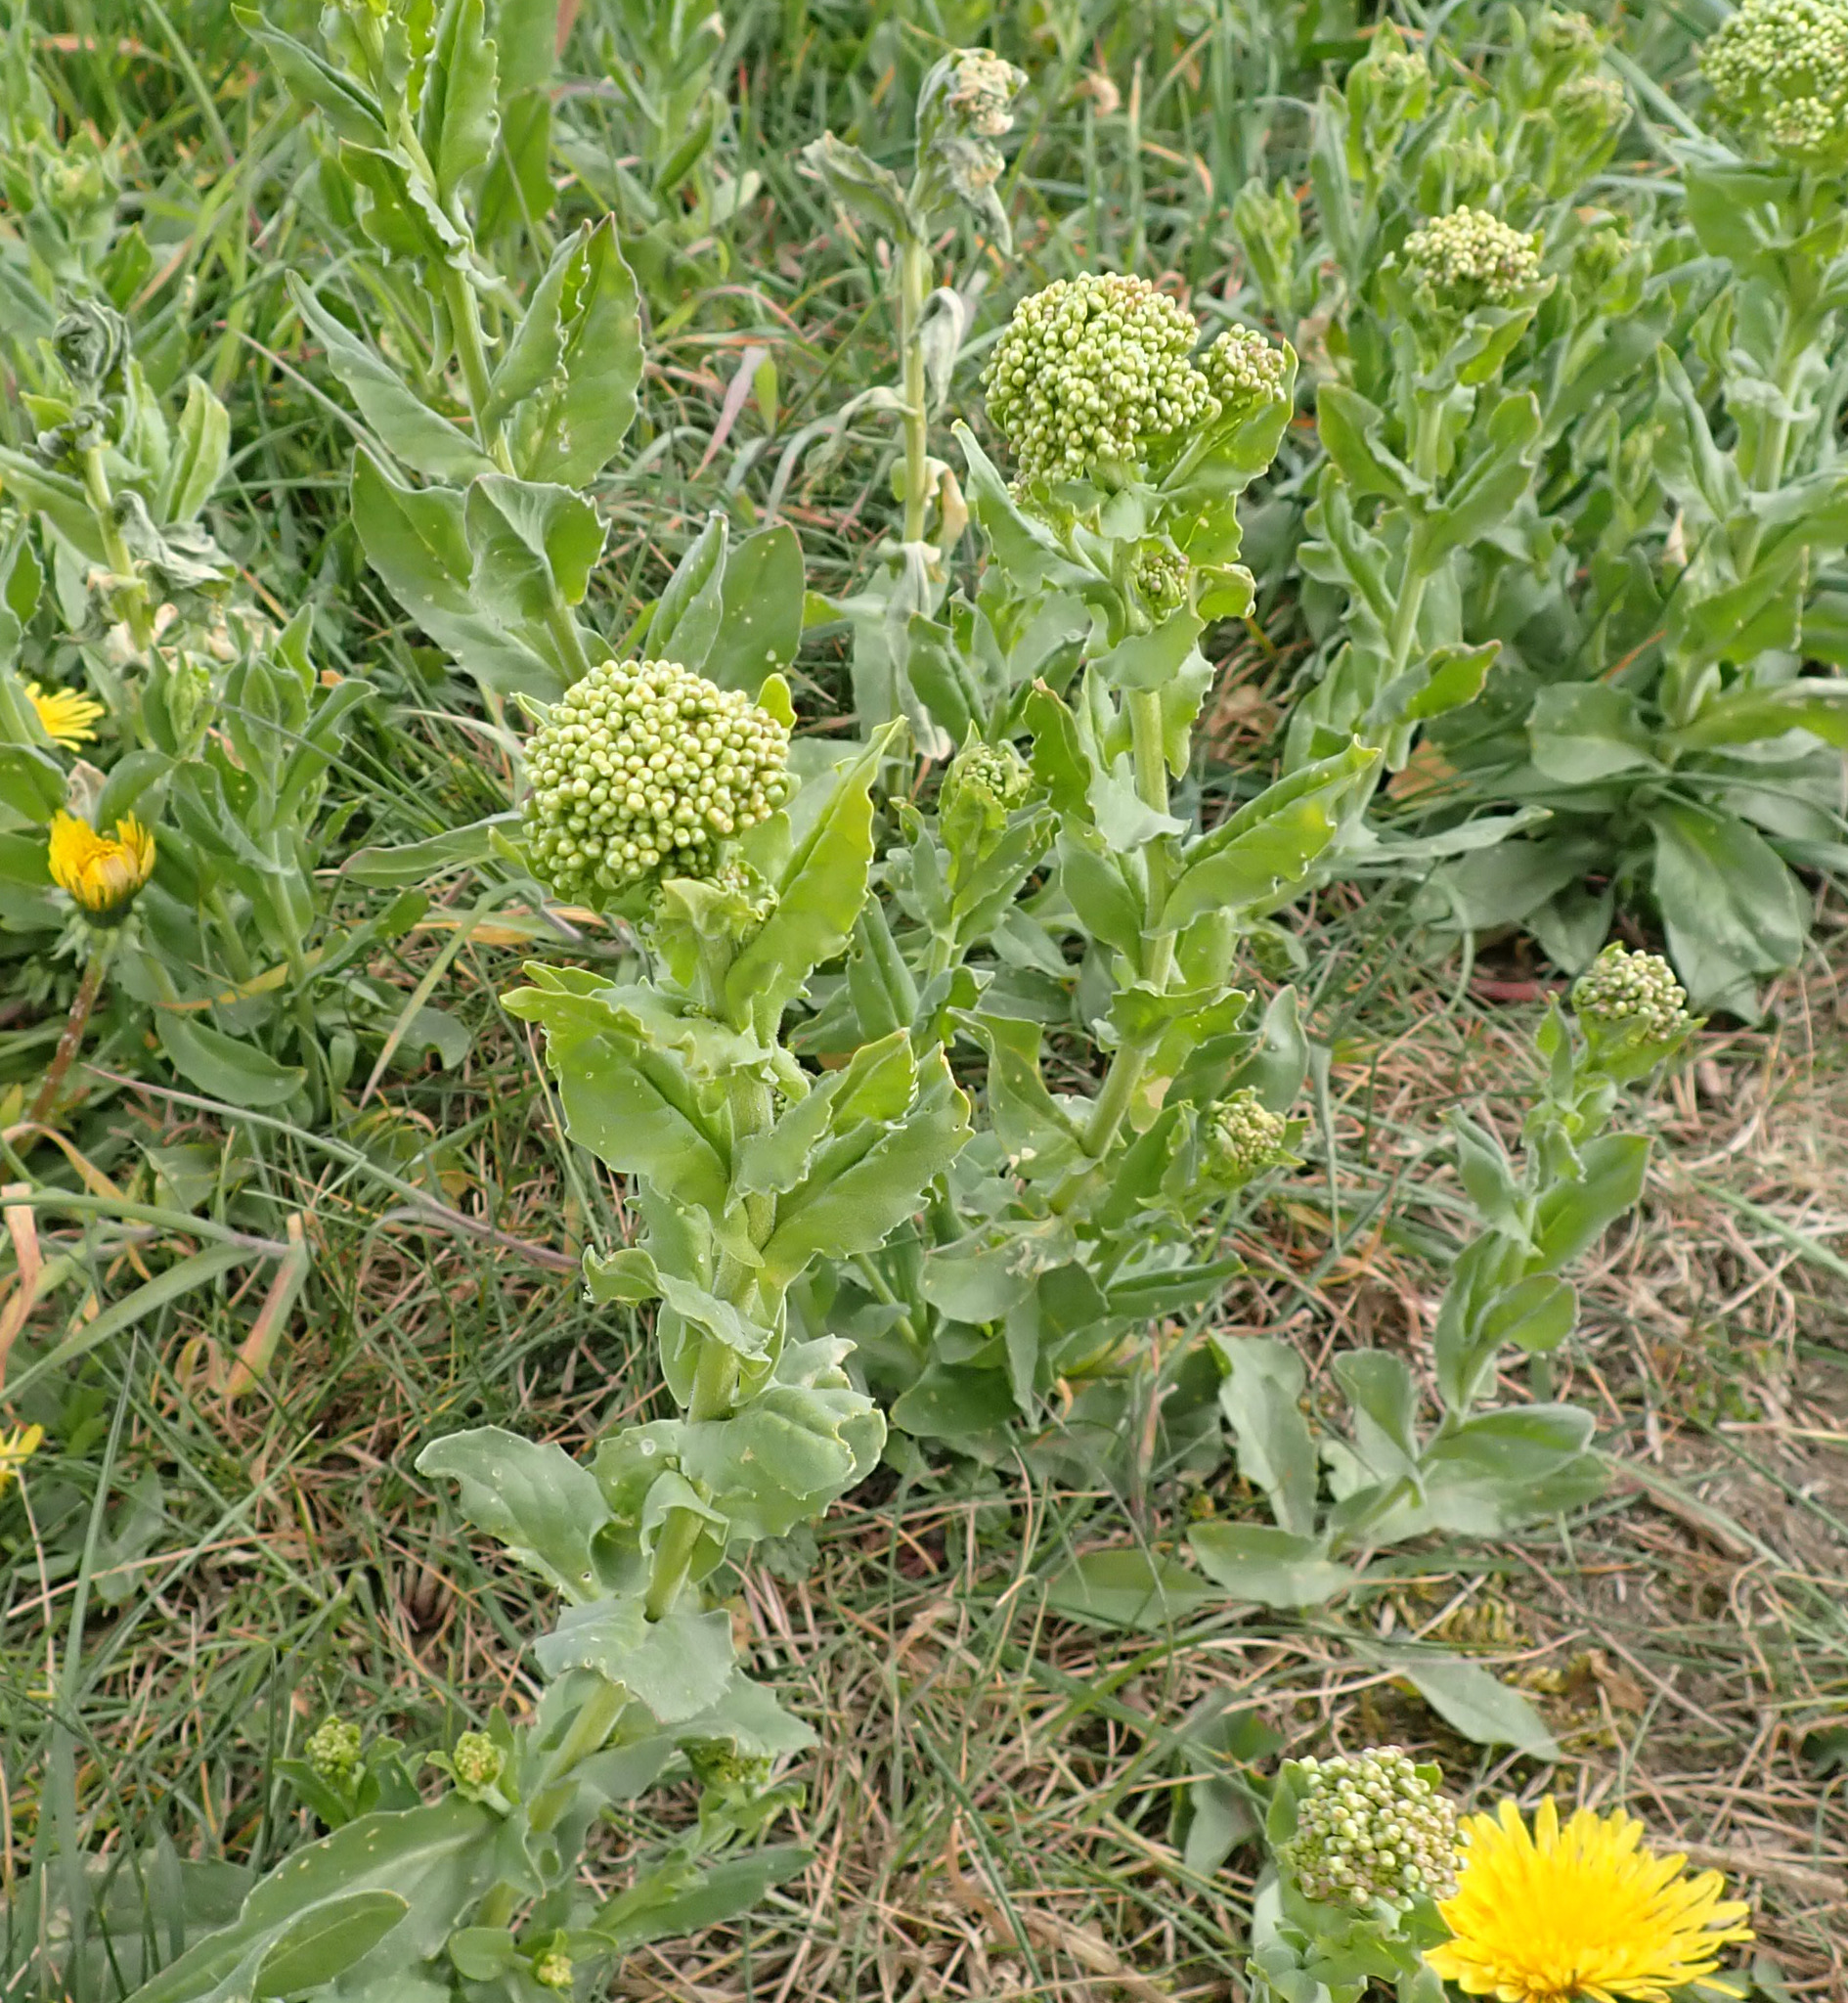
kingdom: Plantae
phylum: Tracheophyta
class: Magnoliopsida
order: Brassicales
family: Brassicaceae
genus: Lepidium
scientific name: Lepidium draba
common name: Hoary cress
